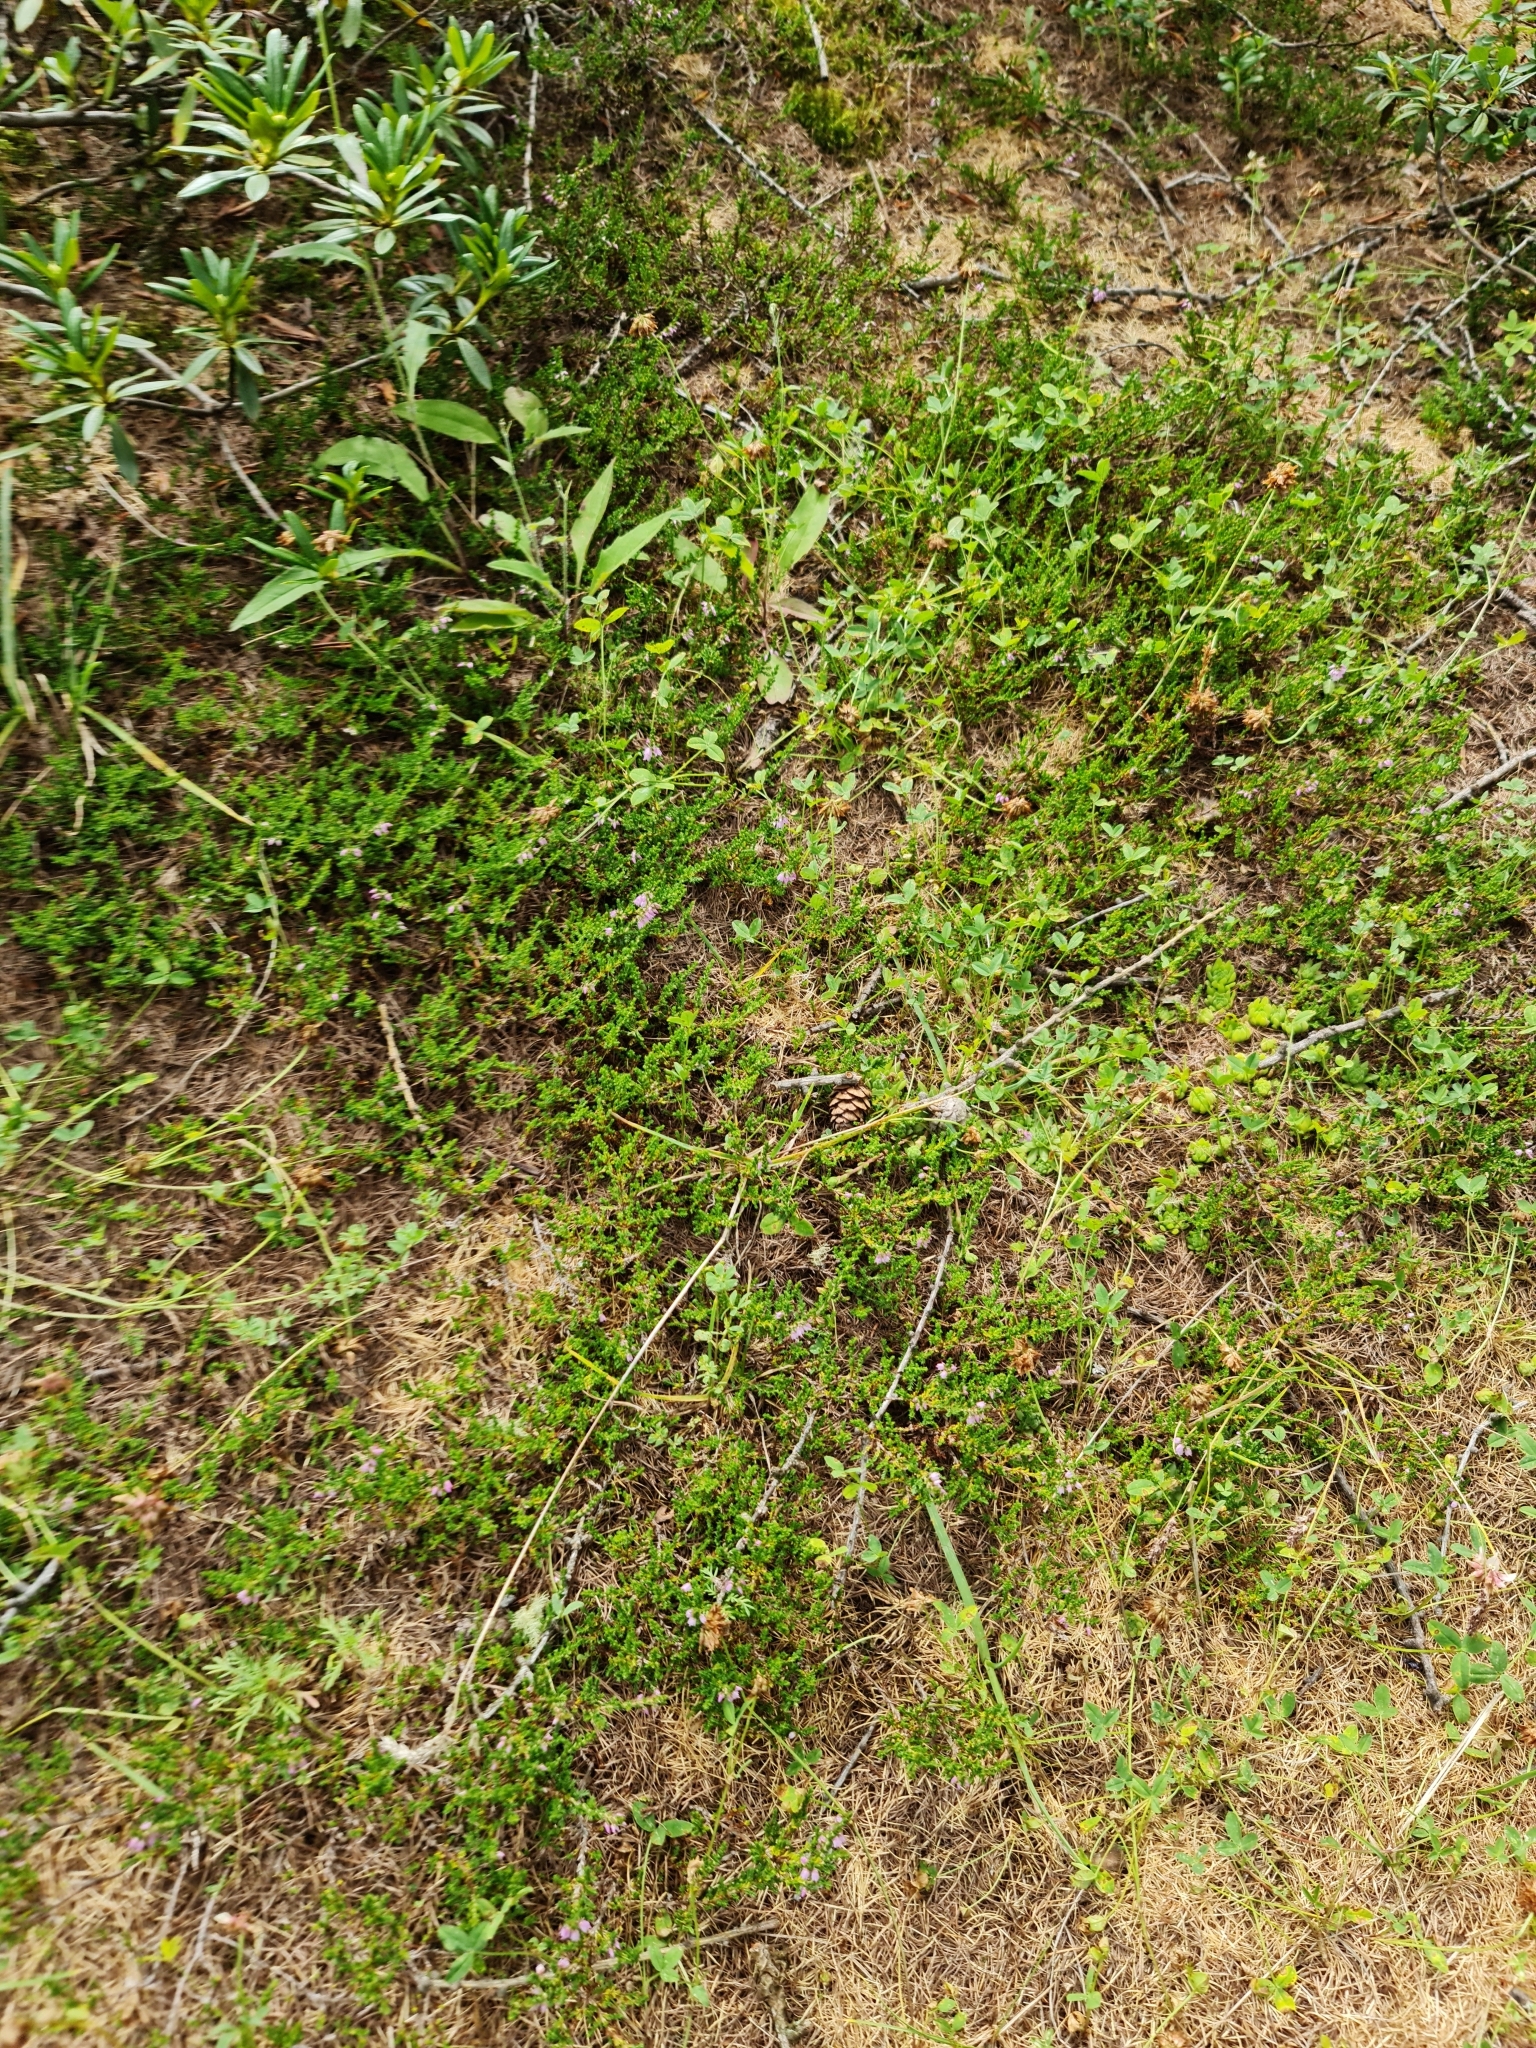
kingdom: Plantae
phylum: Tracheophyta
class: Magnoliopsida
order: Ericales
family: Ericaceae
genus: Calluna
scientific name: Calluna vulgaris
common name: Heather
